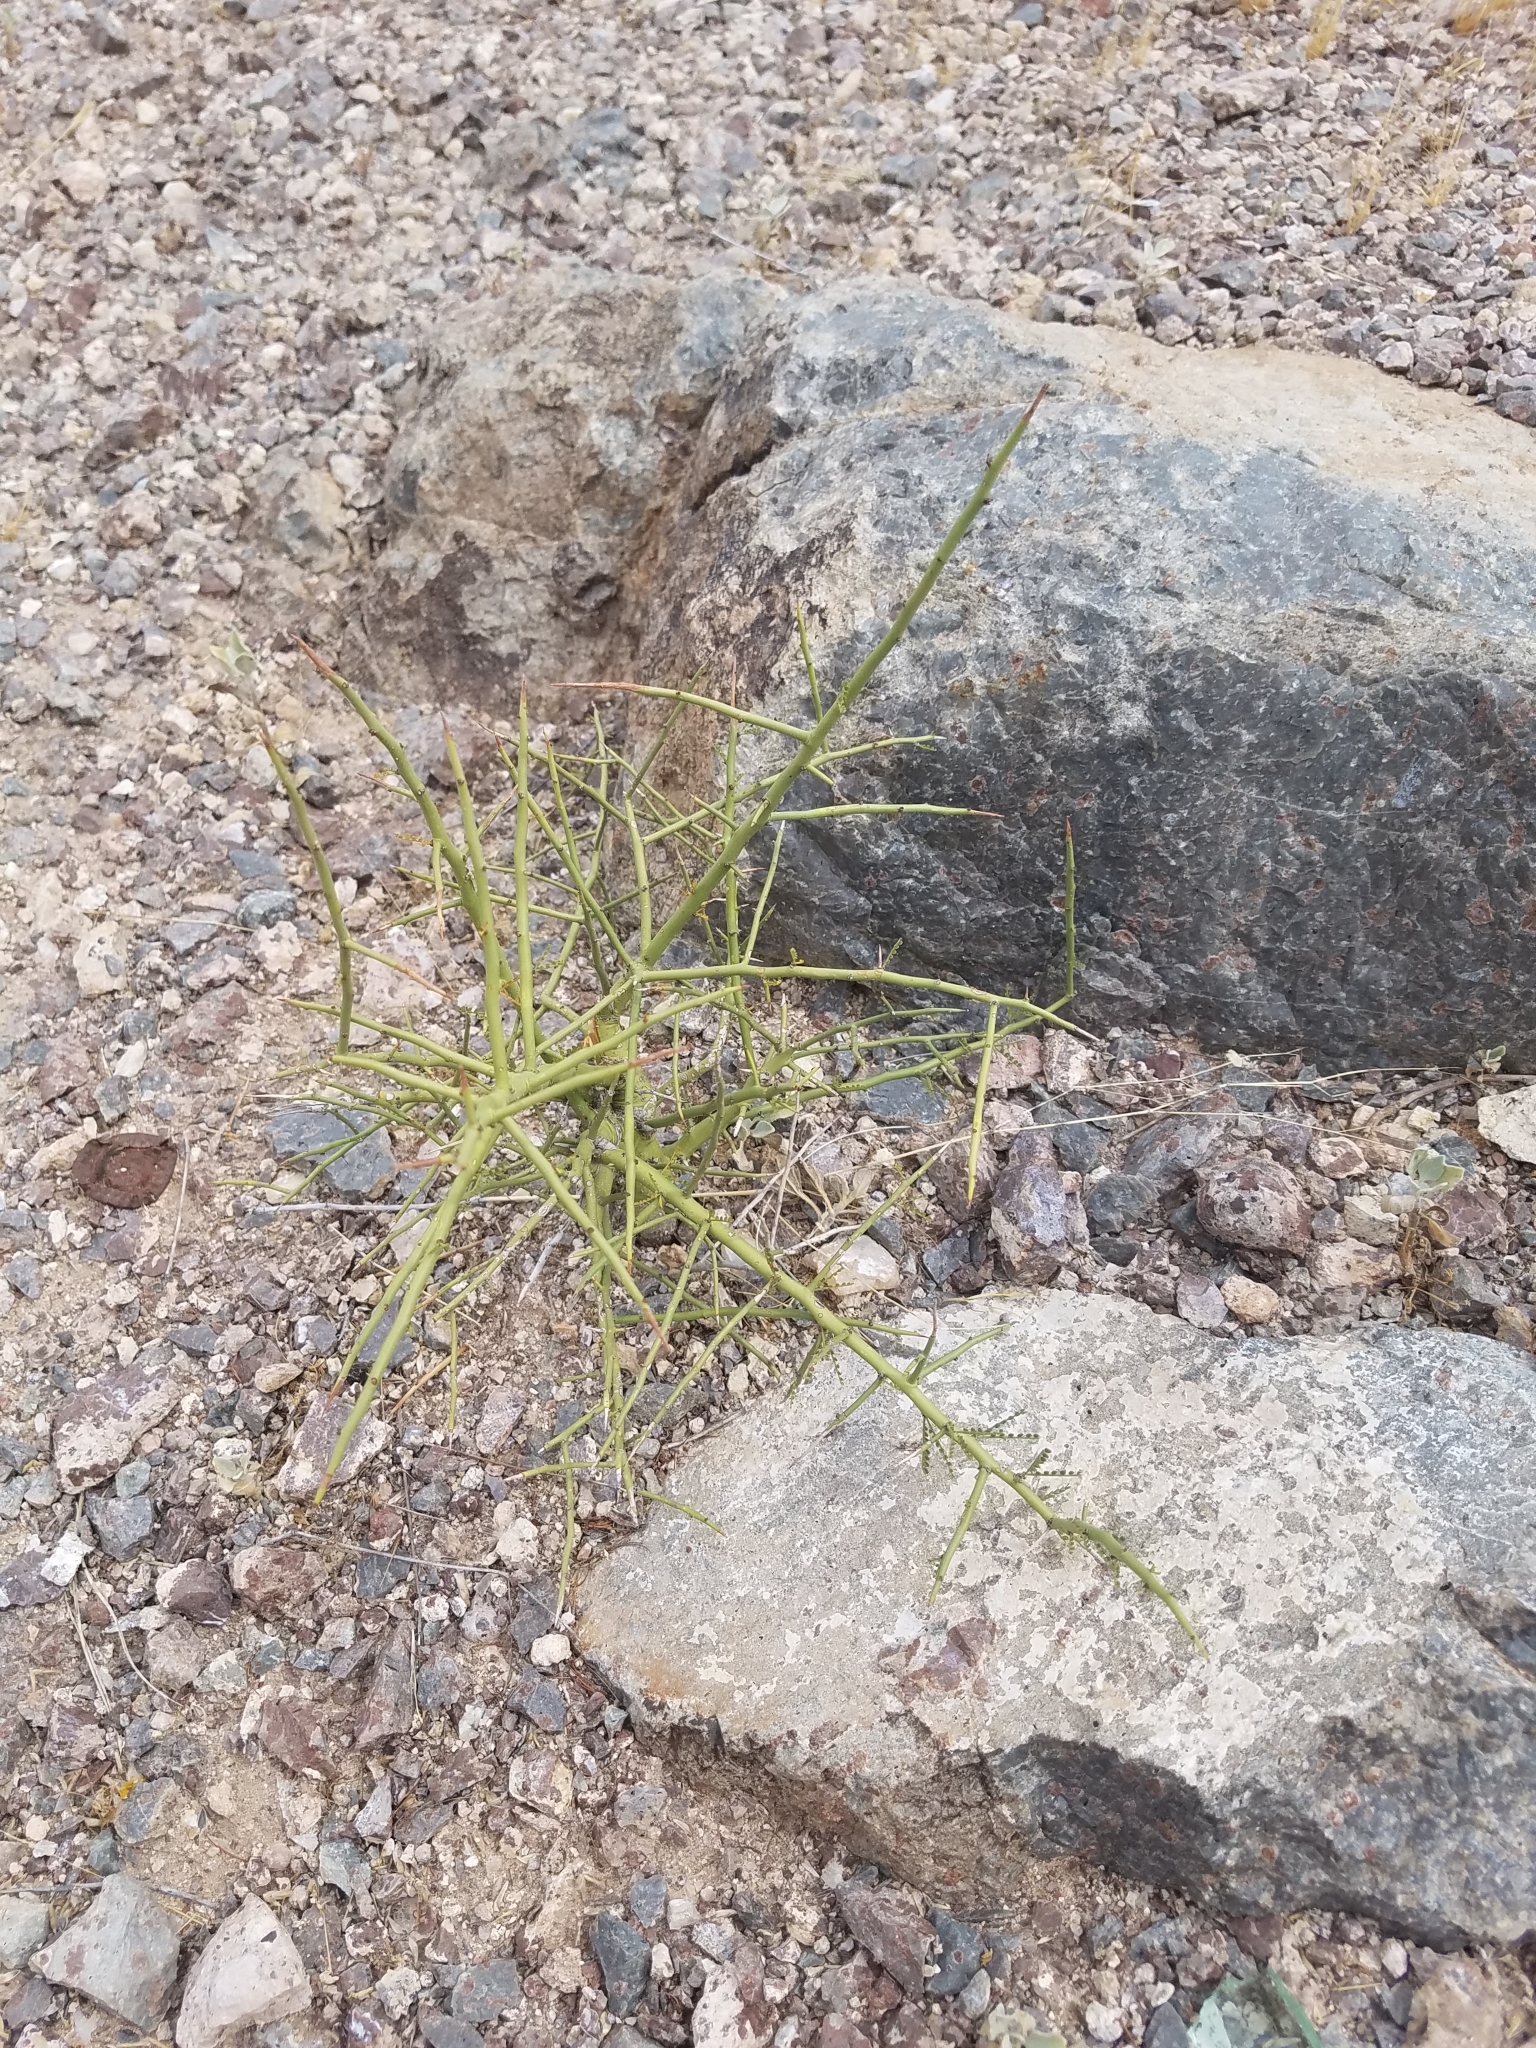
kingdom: Plantae
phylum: Tracheophyta
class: Magnoliopsida
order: Fabales
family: Fabaceae
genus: Parkinsonia
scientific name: Parkinsonia microphylla
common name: Yellow paloverde
